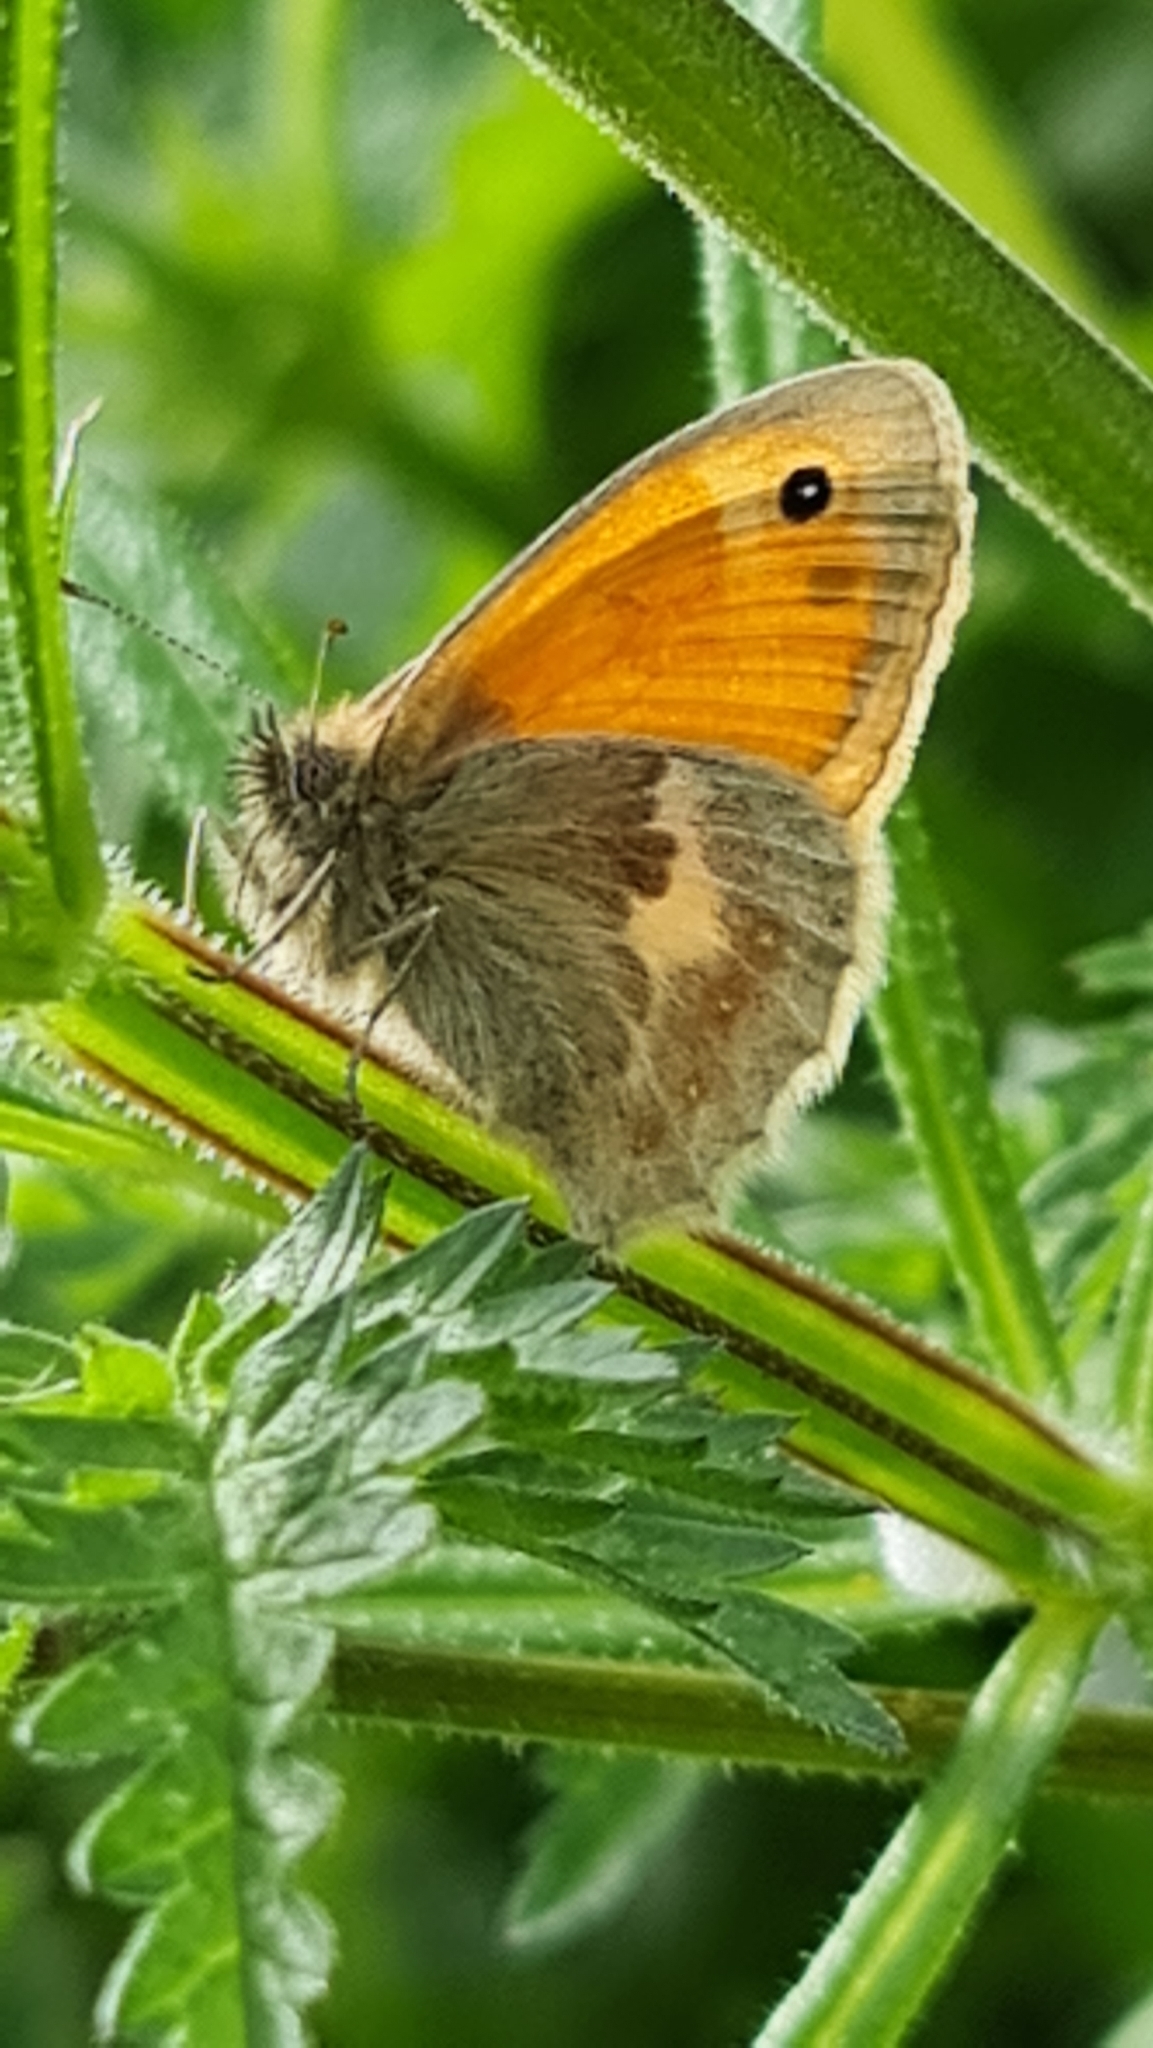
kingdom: Animalia
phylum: Arthropoda
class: Insecta
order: Lepidoptera
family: Nymphalidae
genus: Coenonympha
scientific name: Coenonympha pamphilus
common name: Small heath
